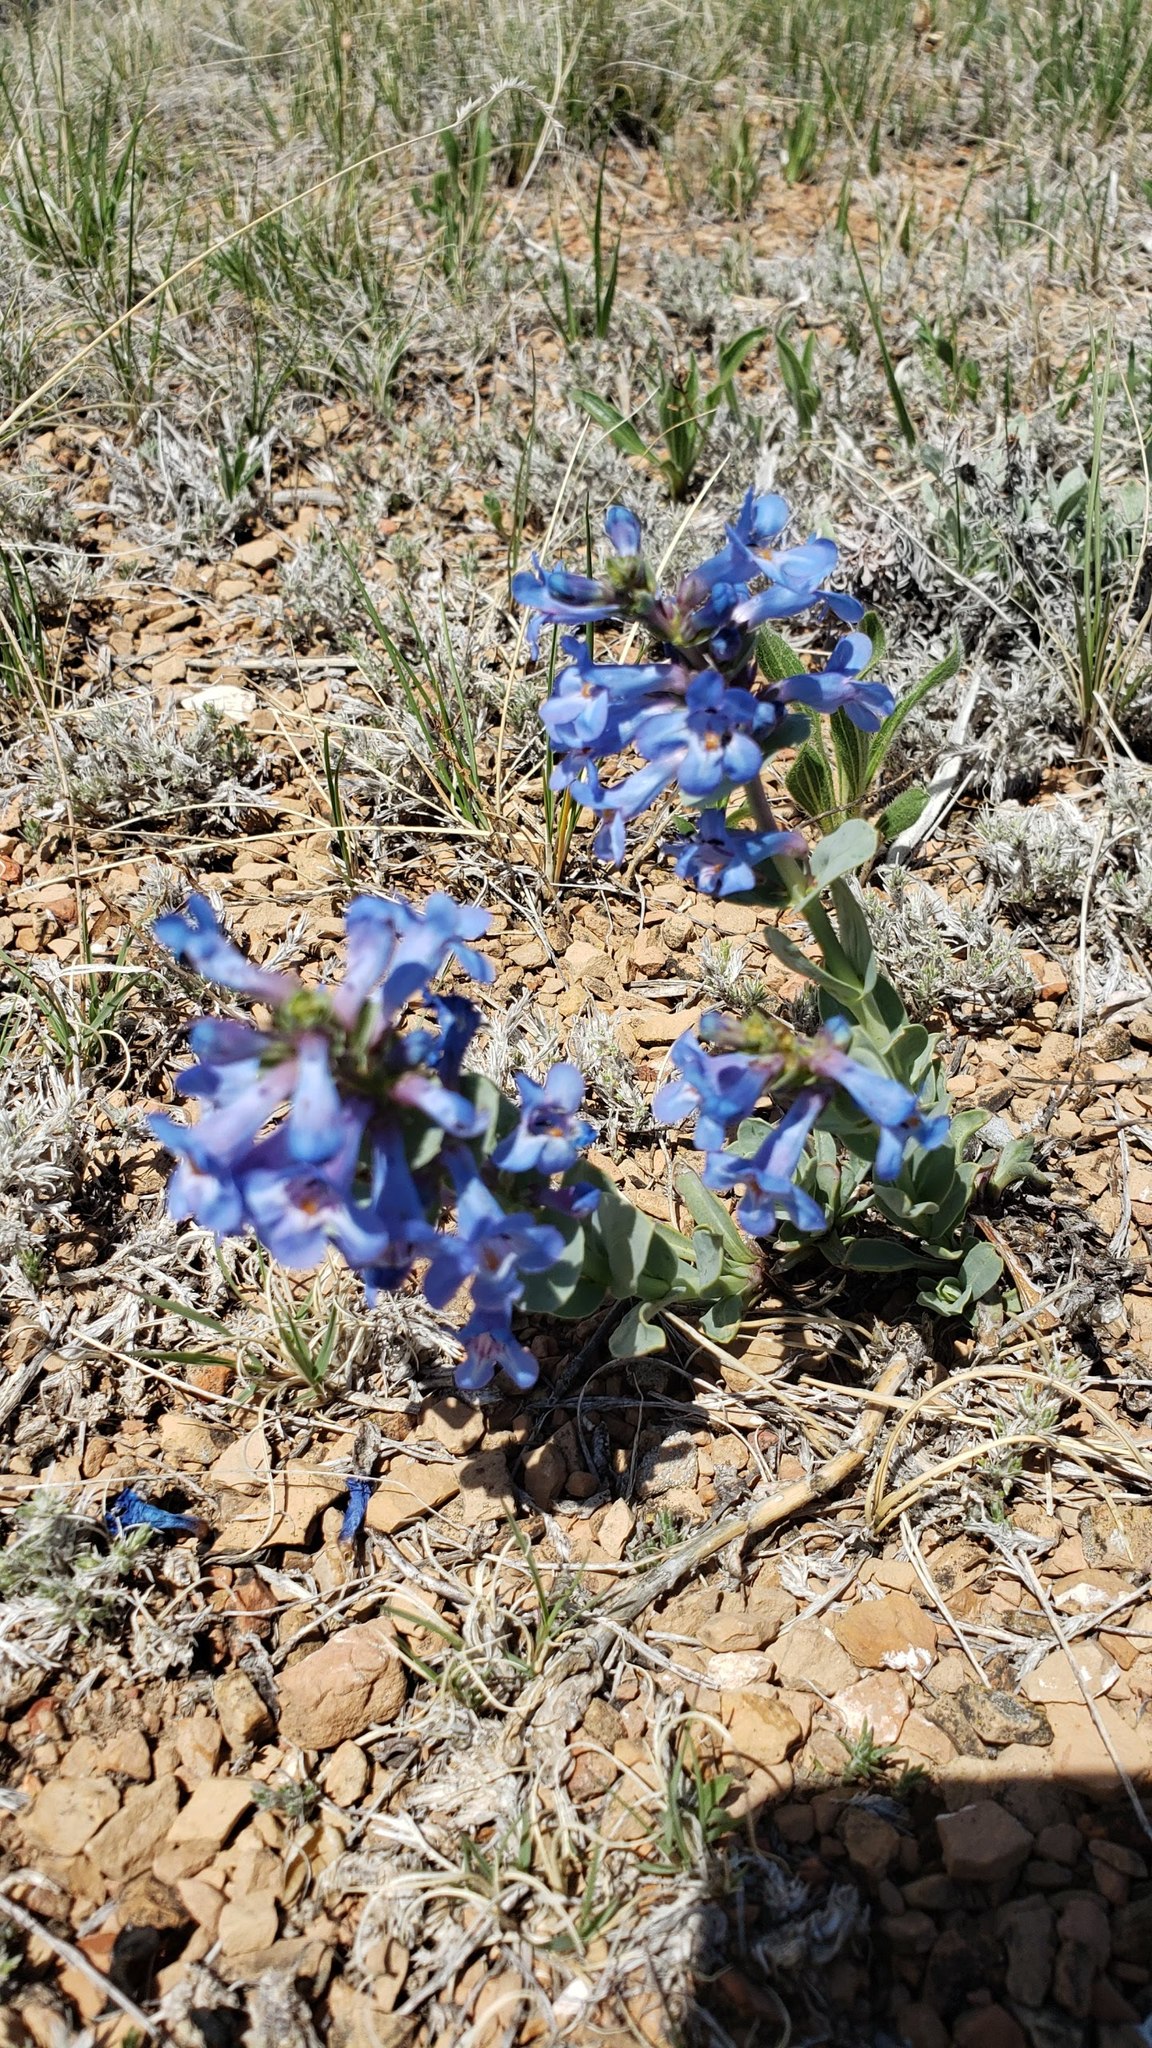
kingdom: Plantae
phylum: Tracheophyta
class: Magnoliopsida
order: Lamiales
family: Plantaginaceae
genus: Penstemon
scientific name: Penstemon nitidus
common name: Shining penstemon
